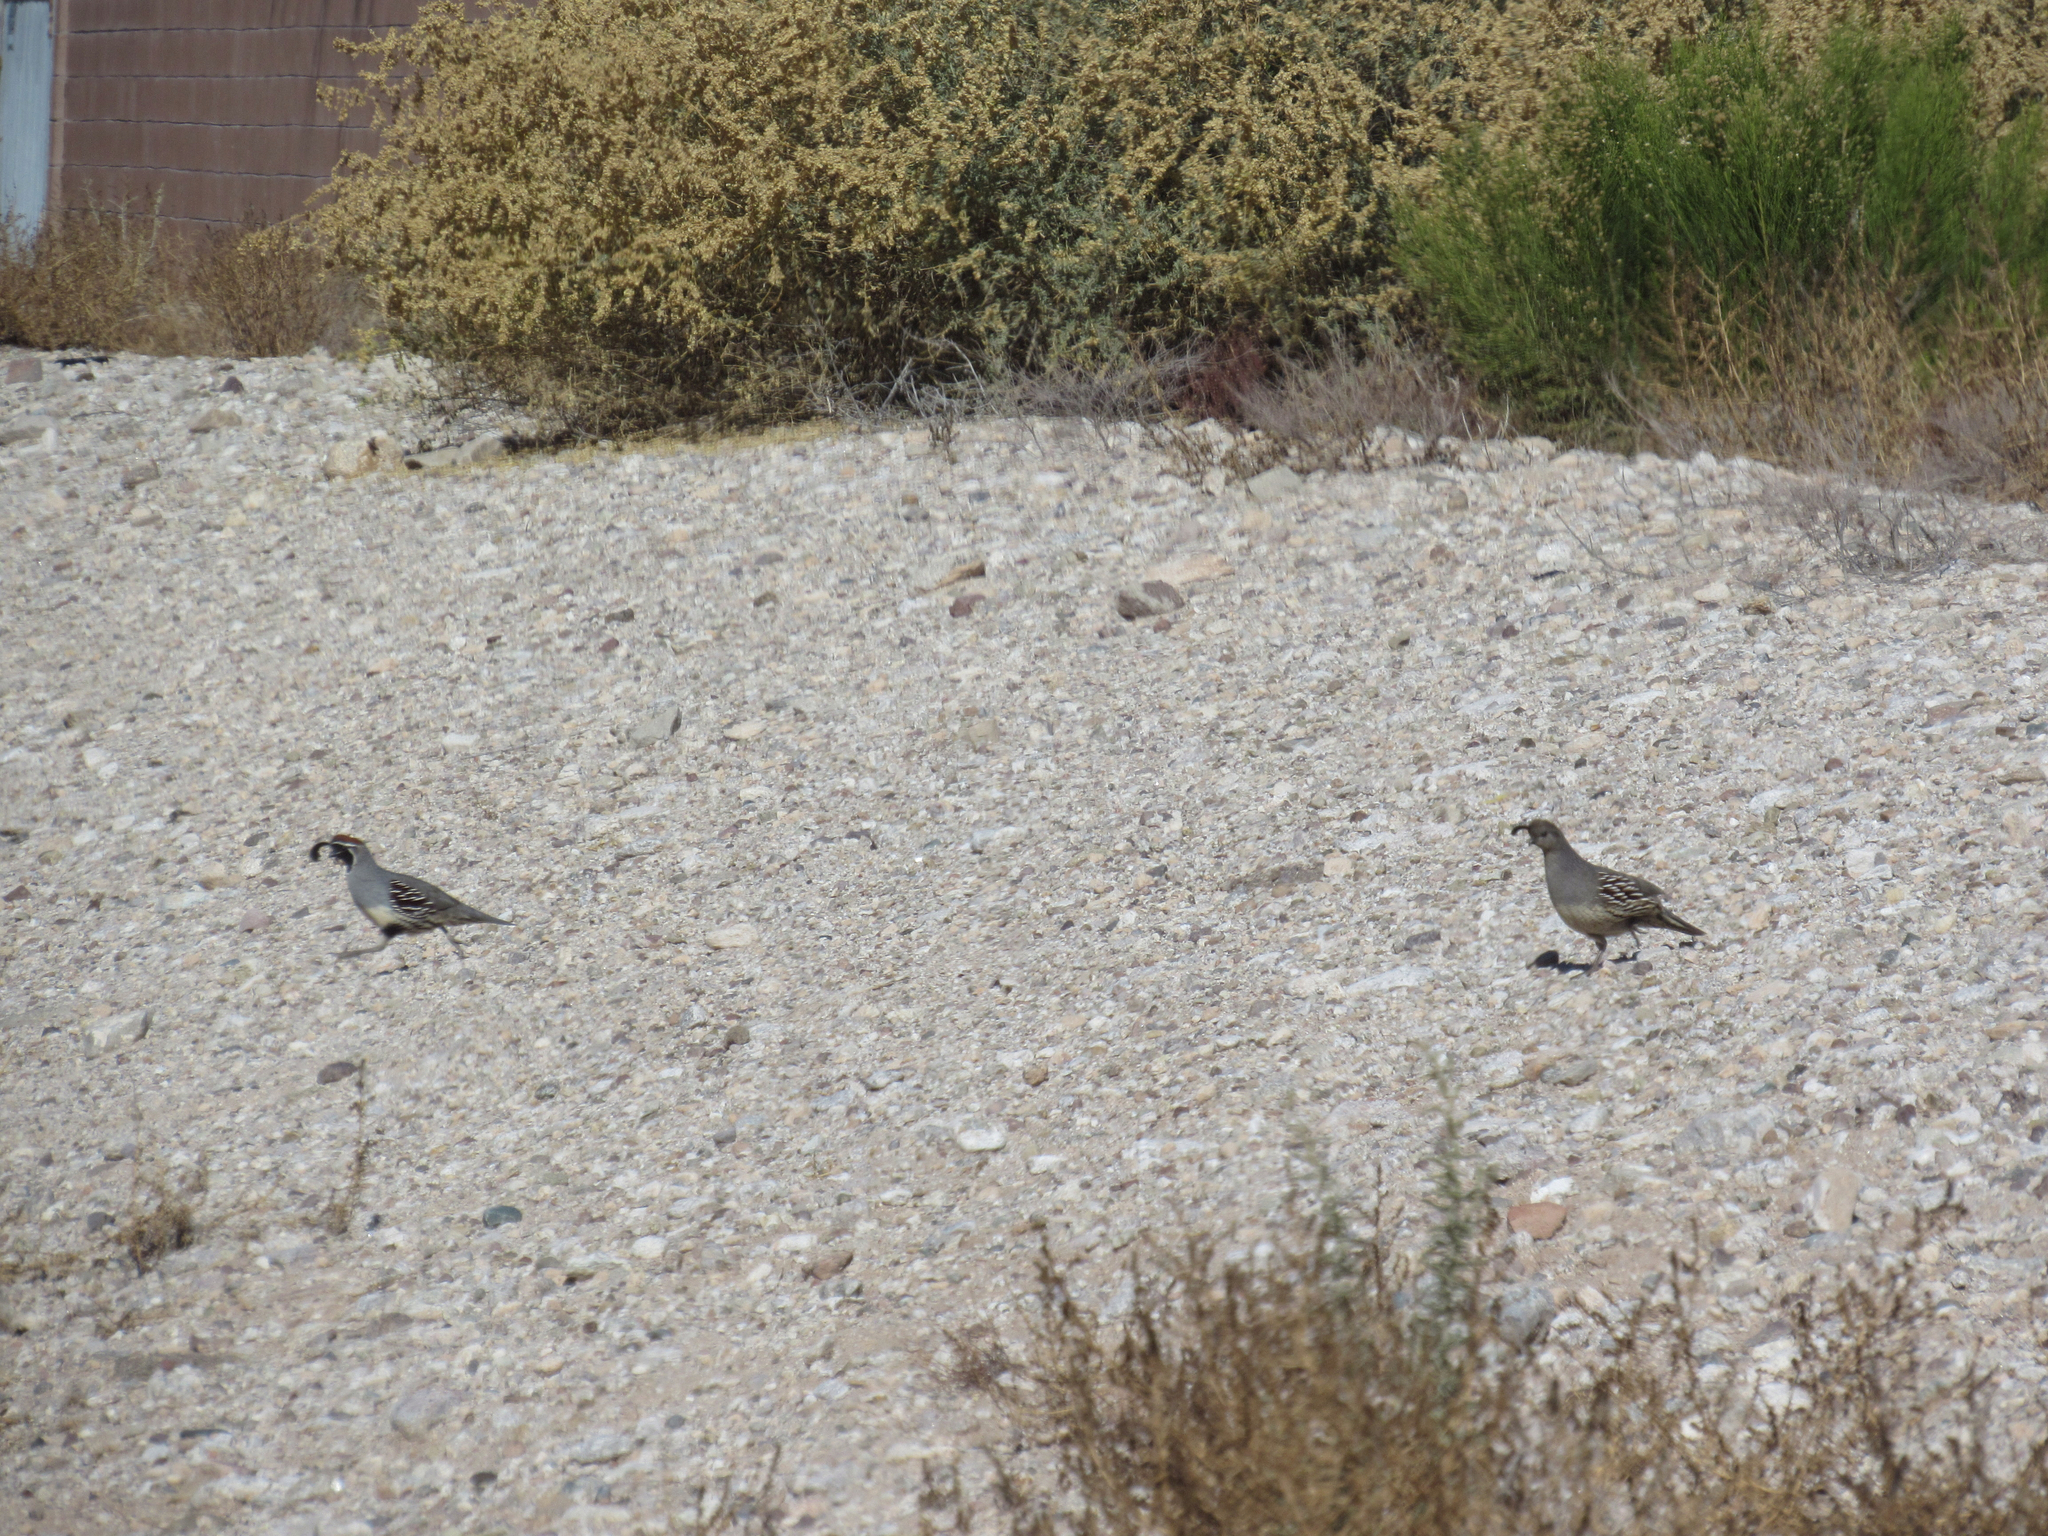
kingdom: Animalia
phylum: Chordata
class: Aves
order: Galliformes
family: Odontophoridae
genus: Callipepla
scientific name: Callipepla gambelii
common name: Gambel's quail
